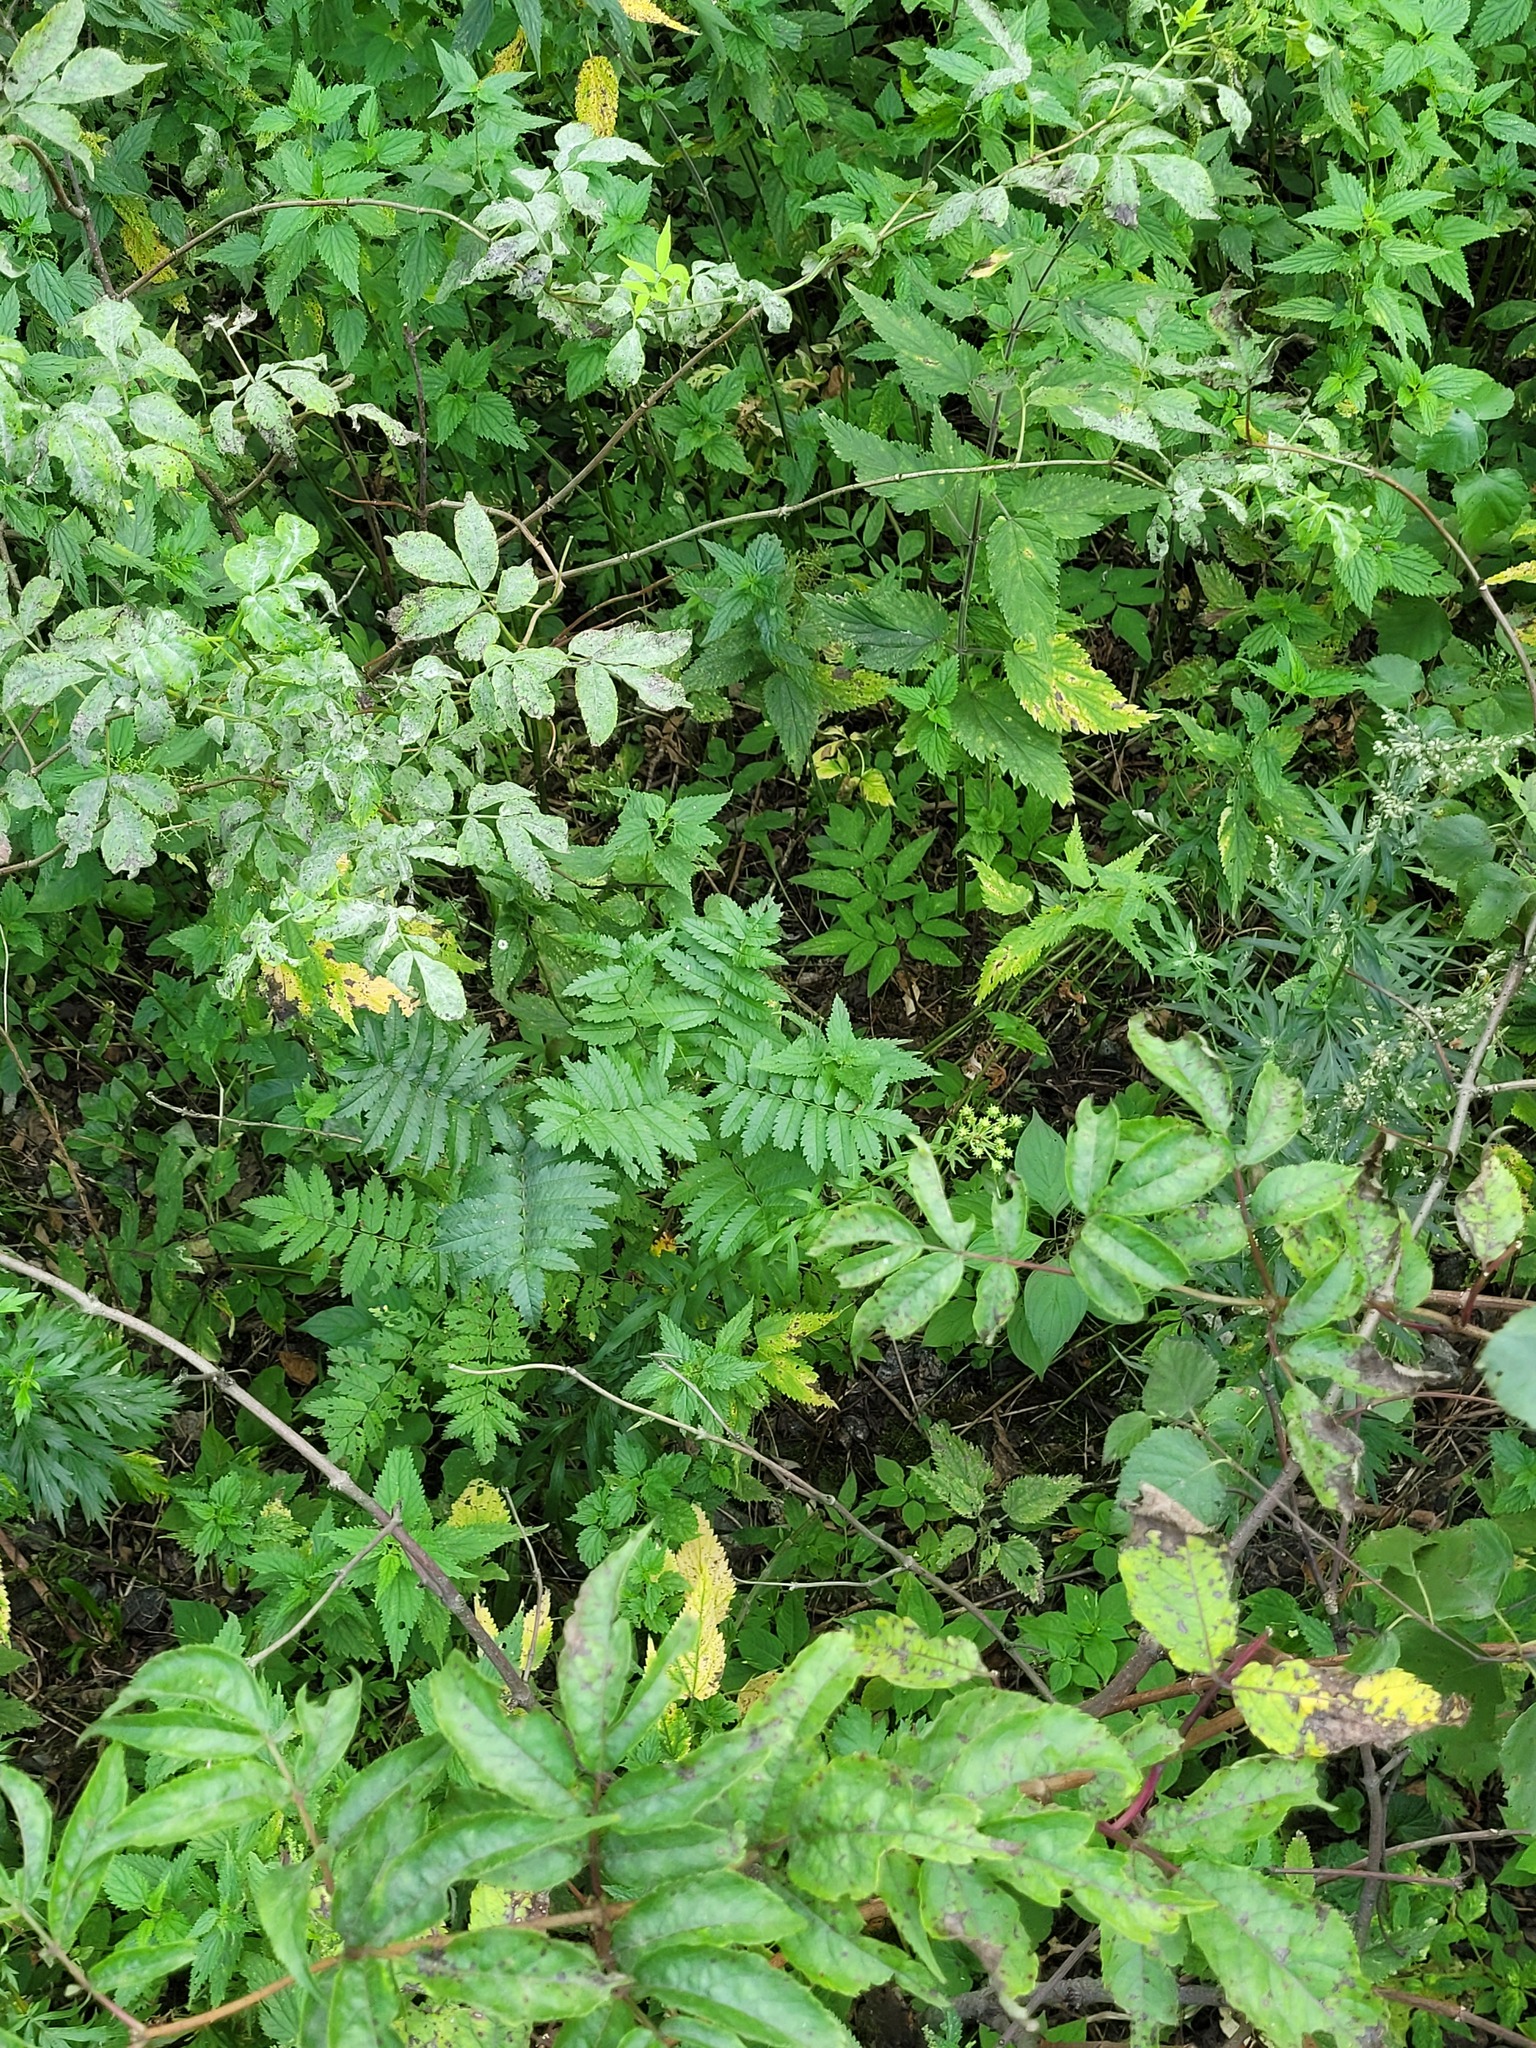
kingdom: Plantae
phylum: Tracheophyta
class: Magnoliopsida
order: Rosales
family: Rosaceae
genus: Sorbus
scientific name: Sorbus aucuparia
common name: Rowan
